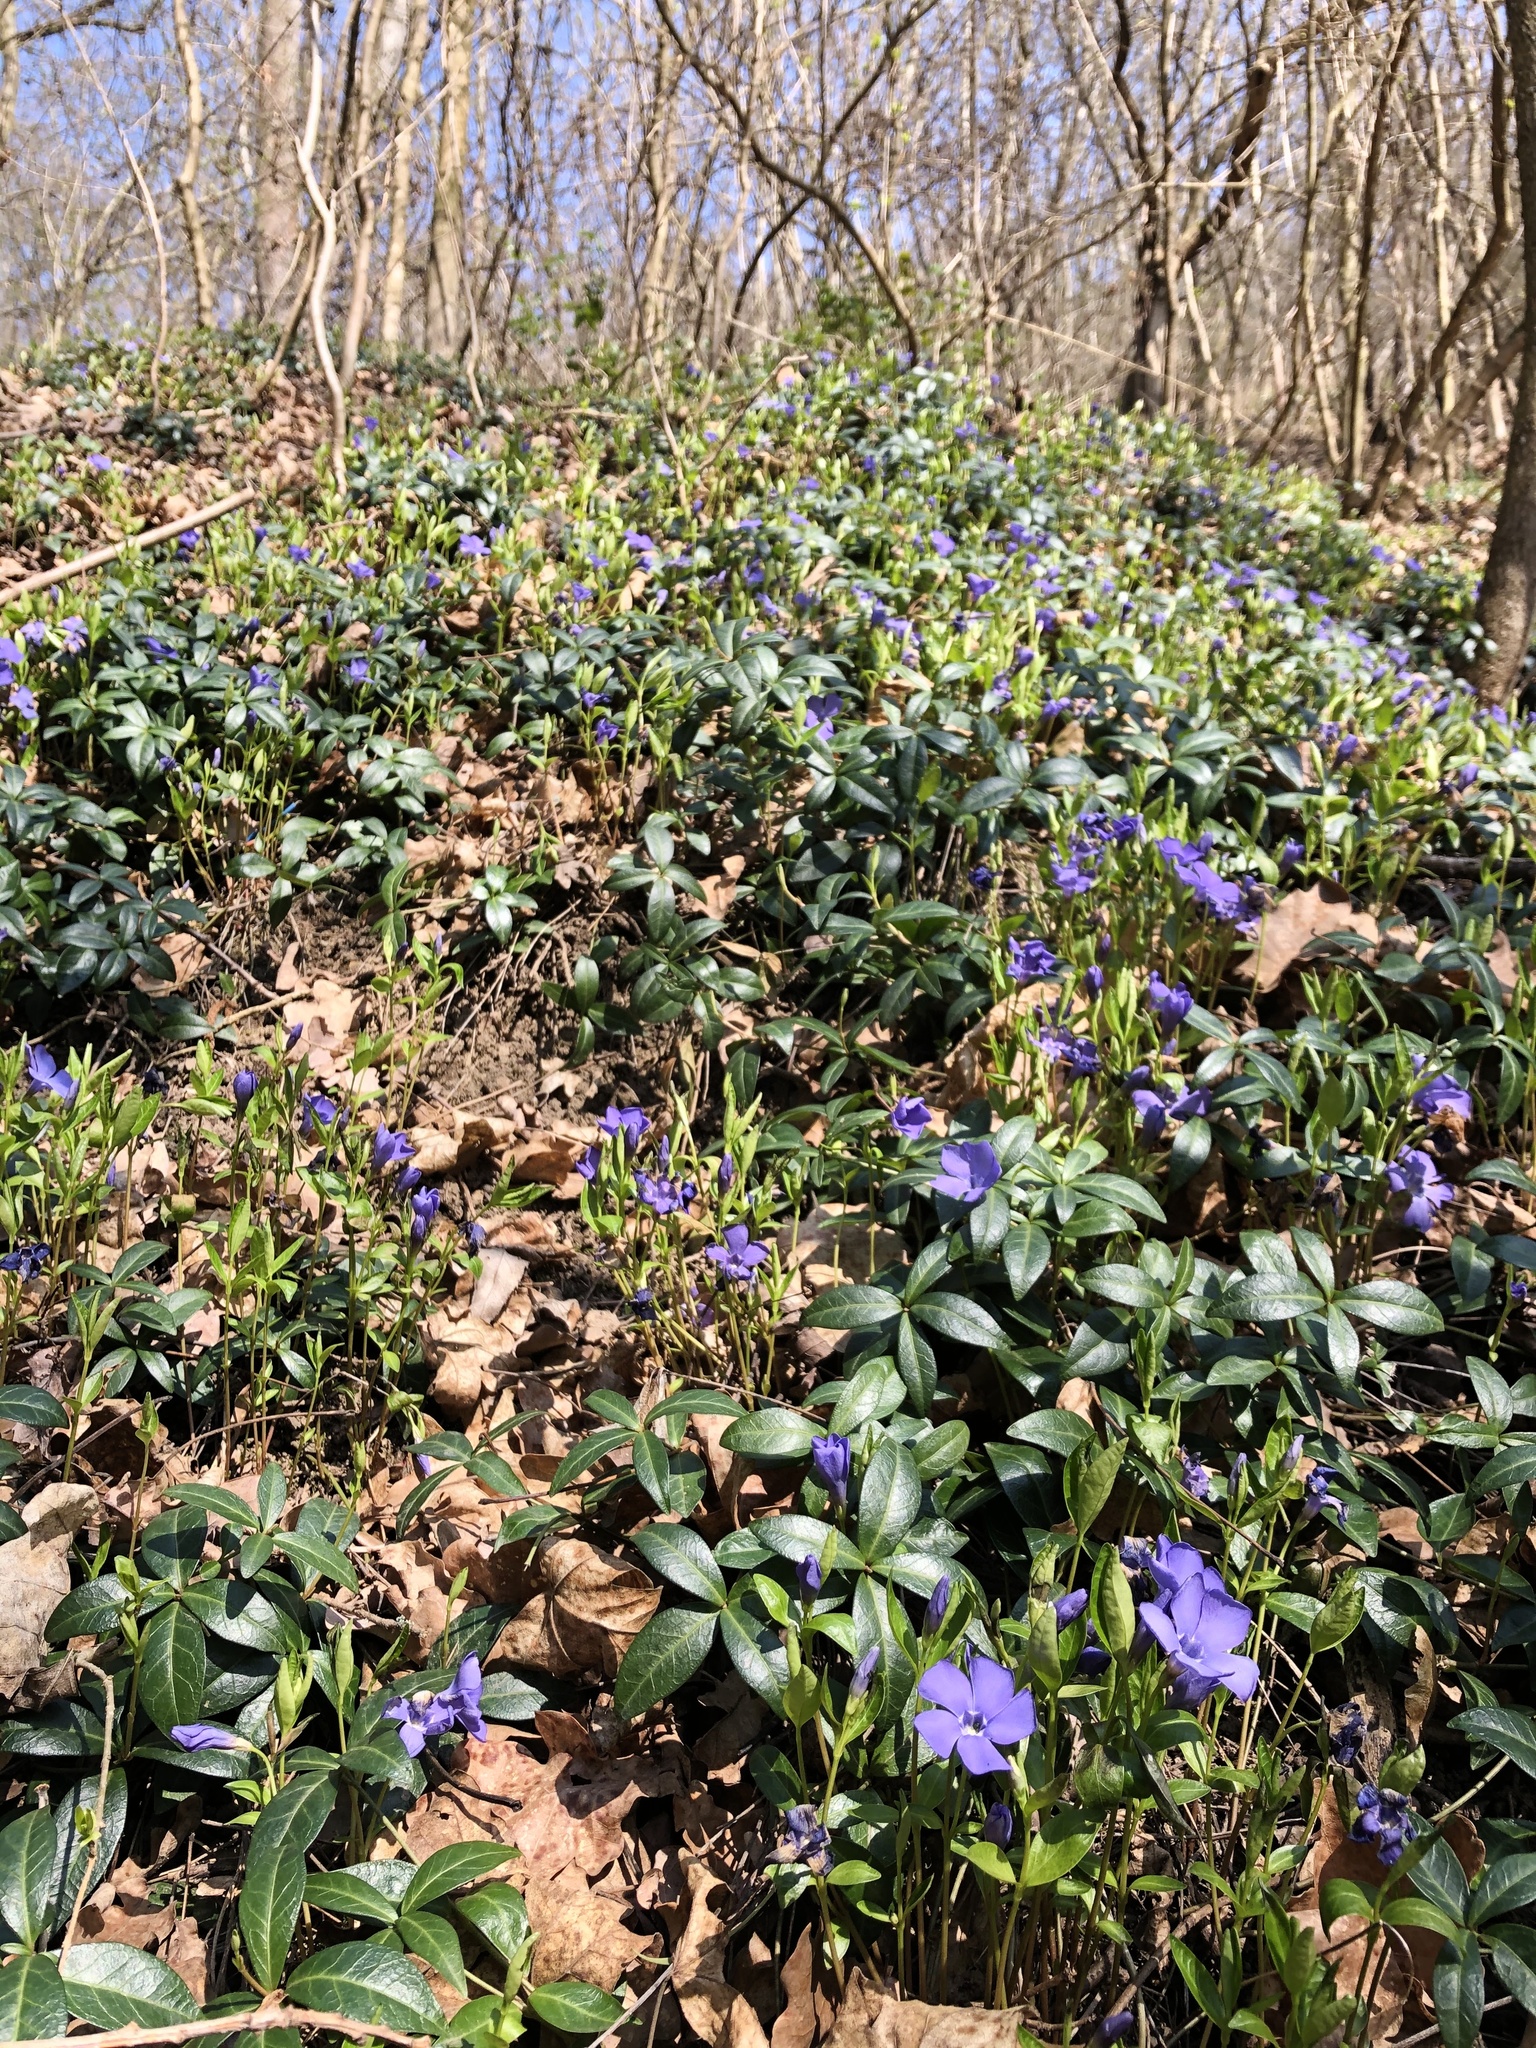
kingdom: Plantae
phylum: Tracheophyta
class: Magnoliopsida
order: Gentianales
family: Apocynaceae
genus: Vinca
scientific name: Vinca minor
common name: Lesser periwinkle
